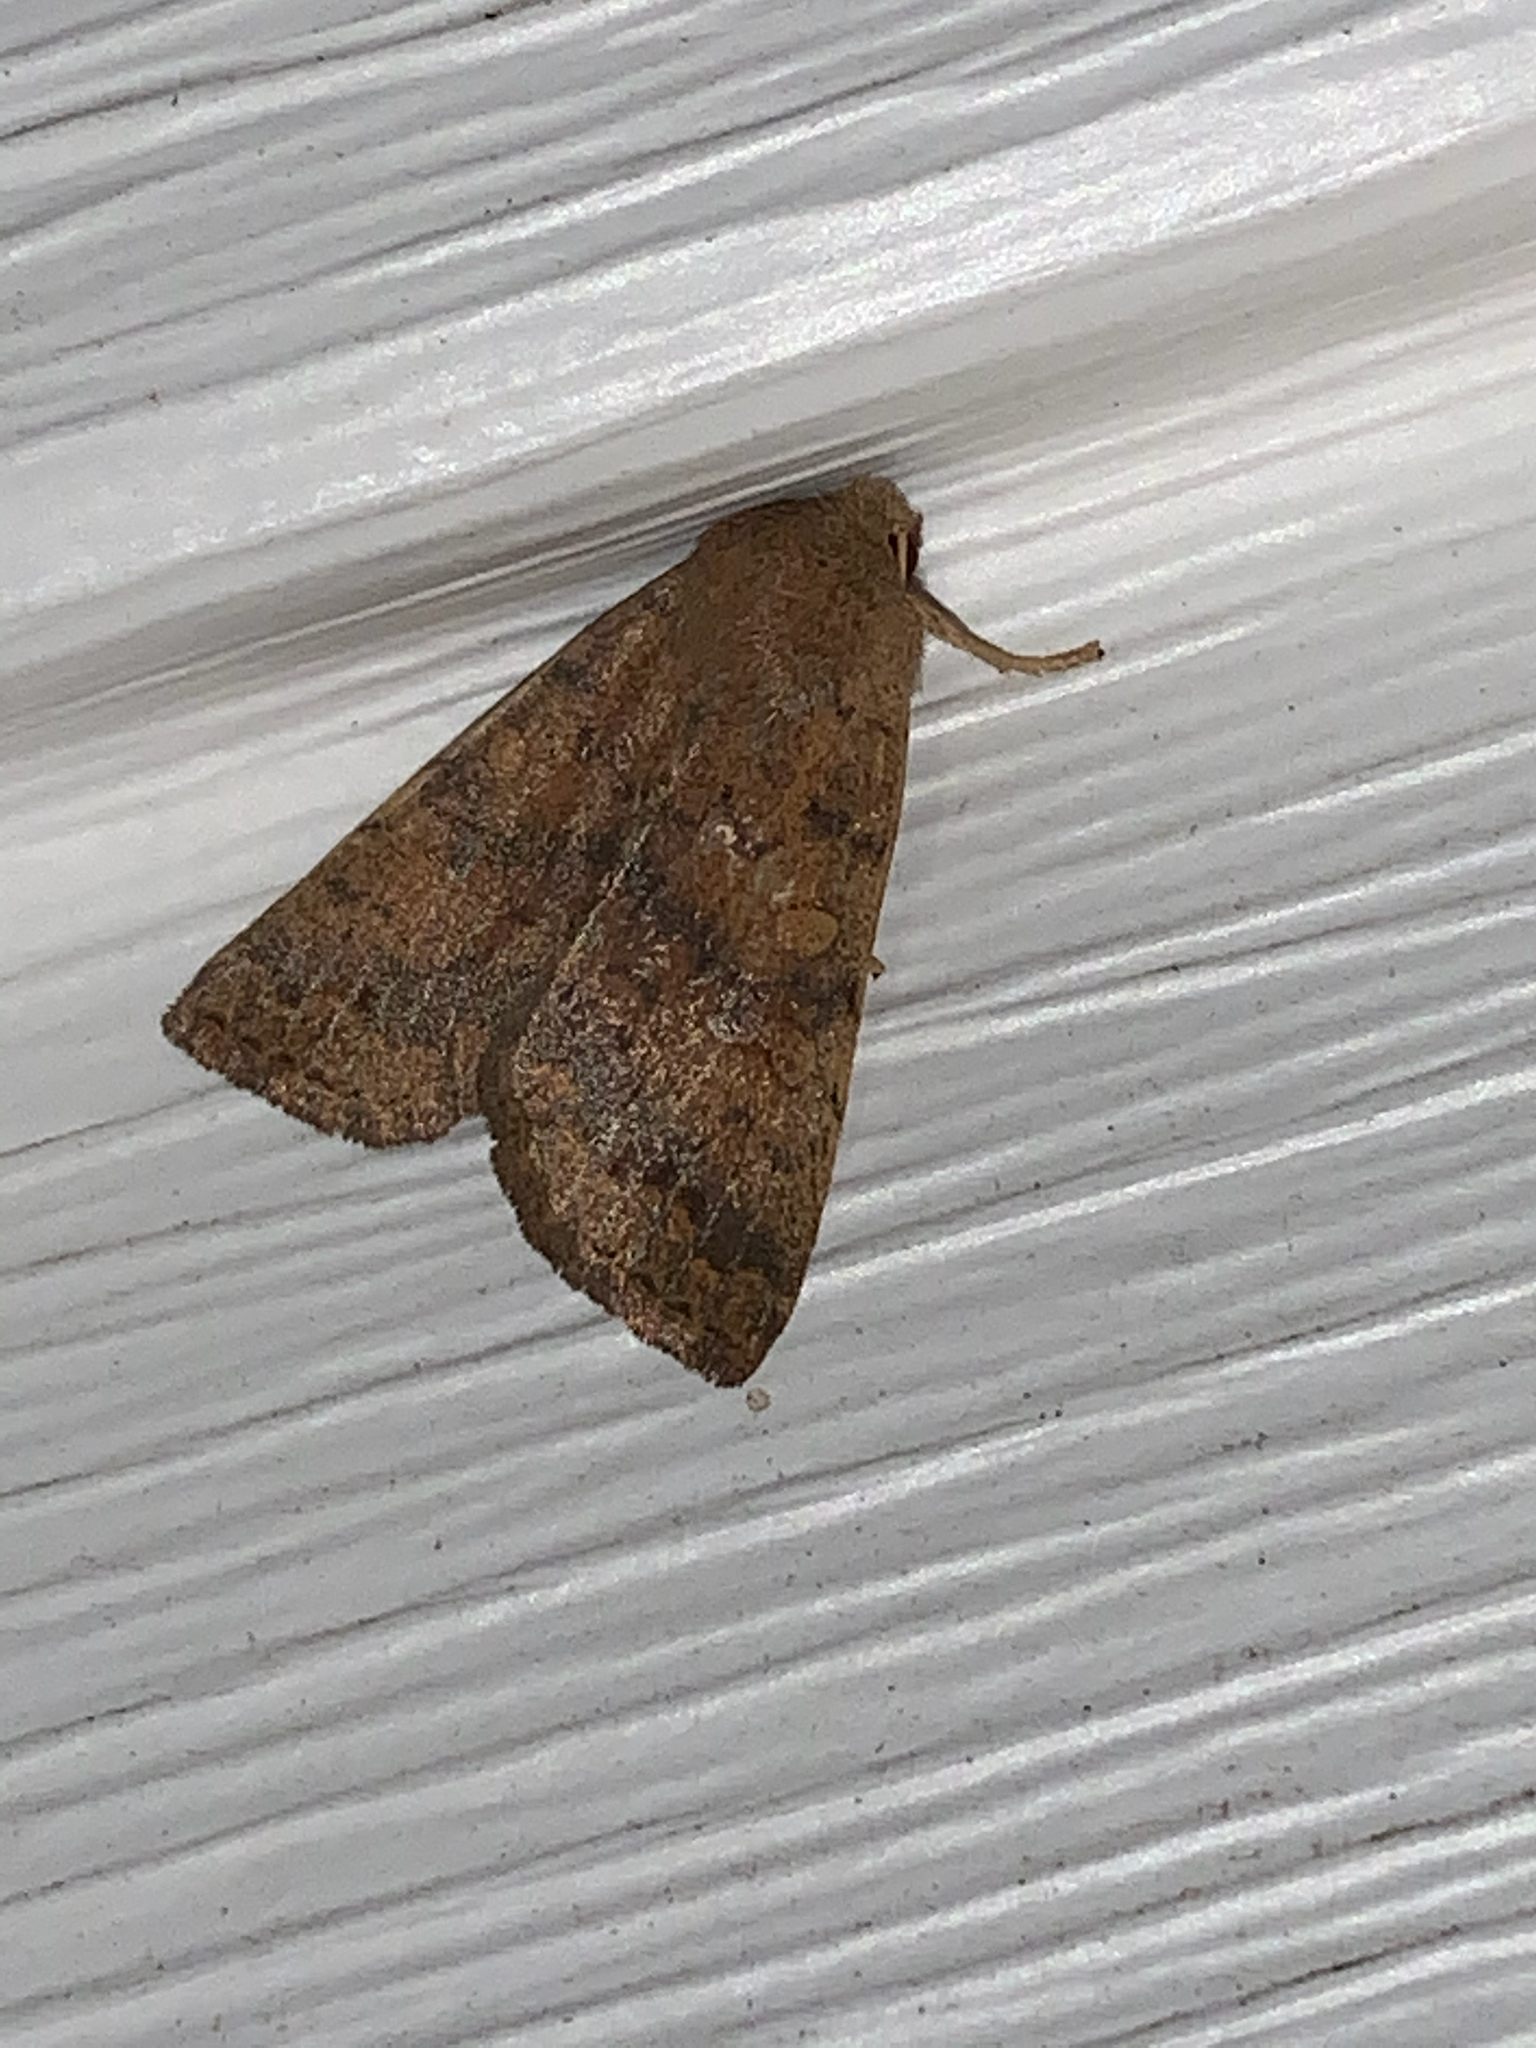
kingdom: Animalia
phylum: Arthropoda
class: Insecta
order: Lepidoptera
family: Noctuidae
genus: Agrochola
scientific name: Agrochola bicolorago
